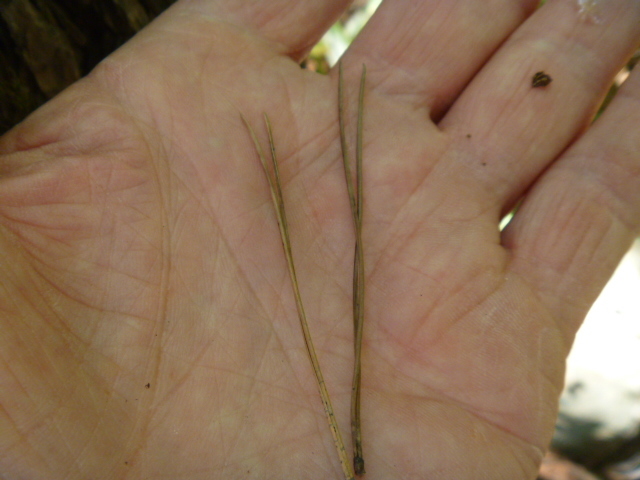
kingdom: Plantae
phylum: Tracheophyta
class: Pinopsida
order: Pinales
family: Pinaceae
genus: Pinus
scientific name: Pinus densiflora
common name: Japanese red pine
